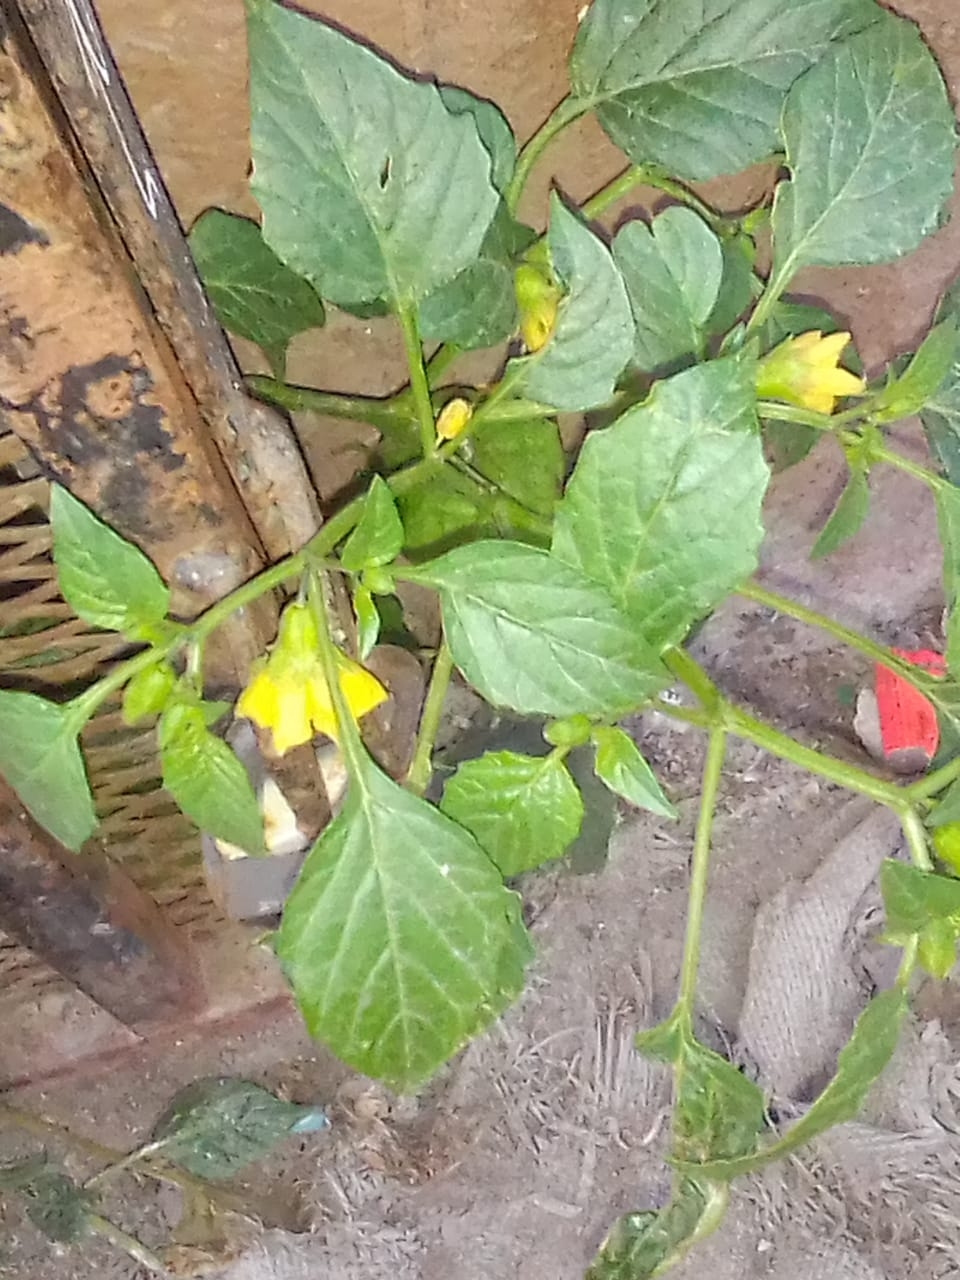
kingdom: Plantae
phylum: Tracheophyta
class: Magnoliopsida
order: Solanales
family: Solanaceae
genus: Physalis
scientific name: Physalis philadelphica
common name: Husk-tomato
